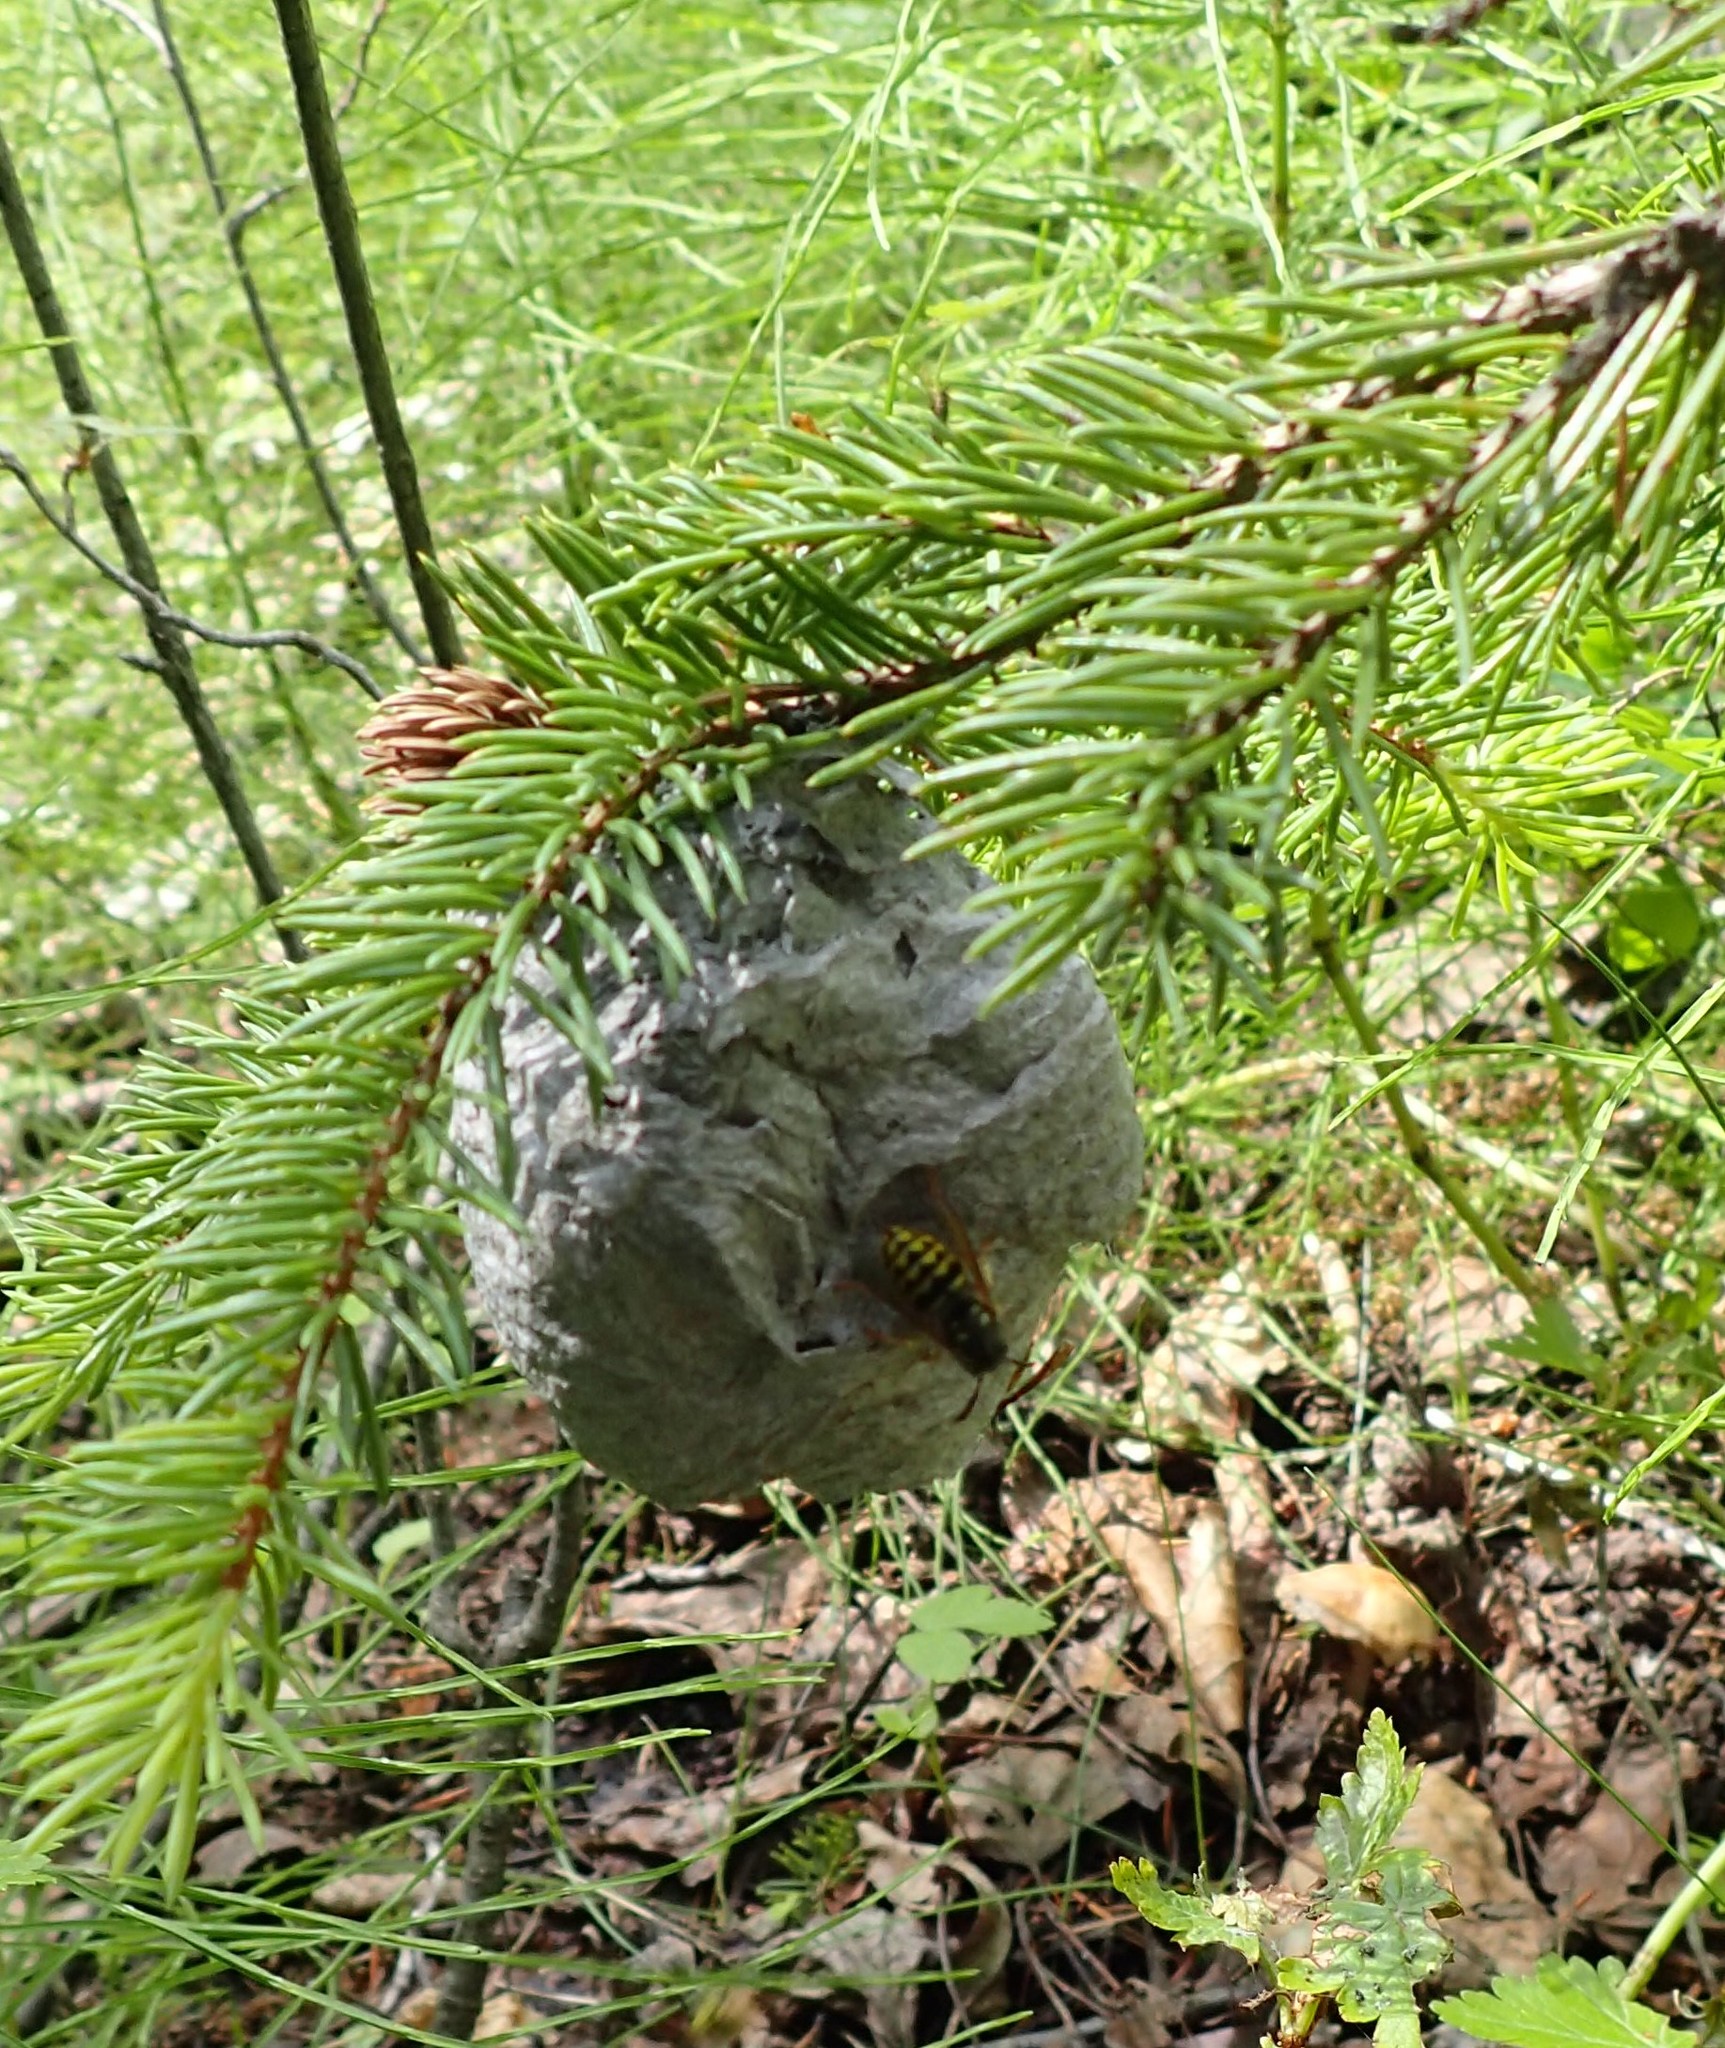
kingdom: Animalia
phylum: Arthropoda
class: Insecta
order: Hymenoptera
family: Vespidae
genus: Dolichovespula
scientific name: Dolichovespula arenaria
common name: Aerial yellowjacket
